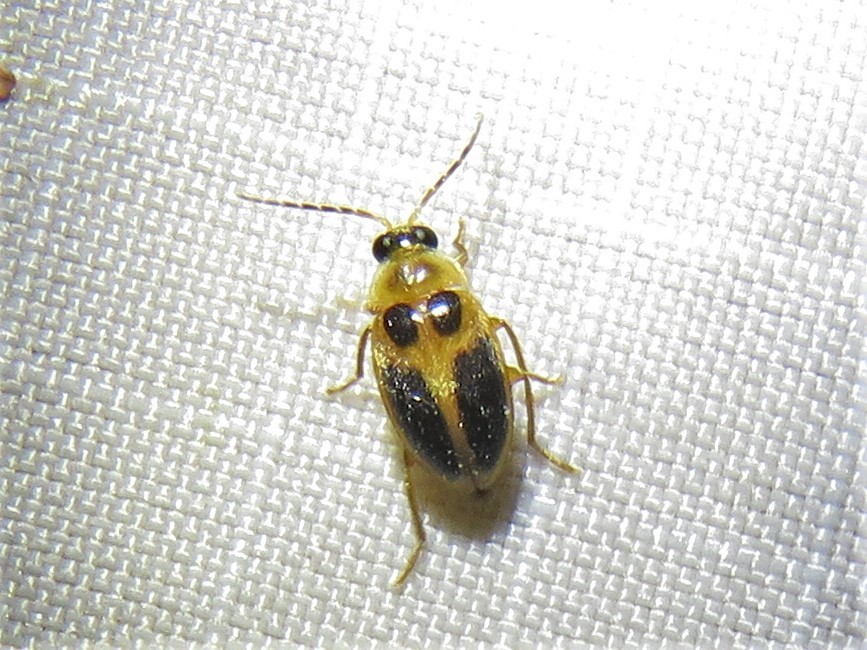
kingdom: Animalia
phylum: Arthropoda
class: Insecta
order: Coleoptera
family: Scirtidae
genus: Sacodes
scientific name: Sacodes pulchella
